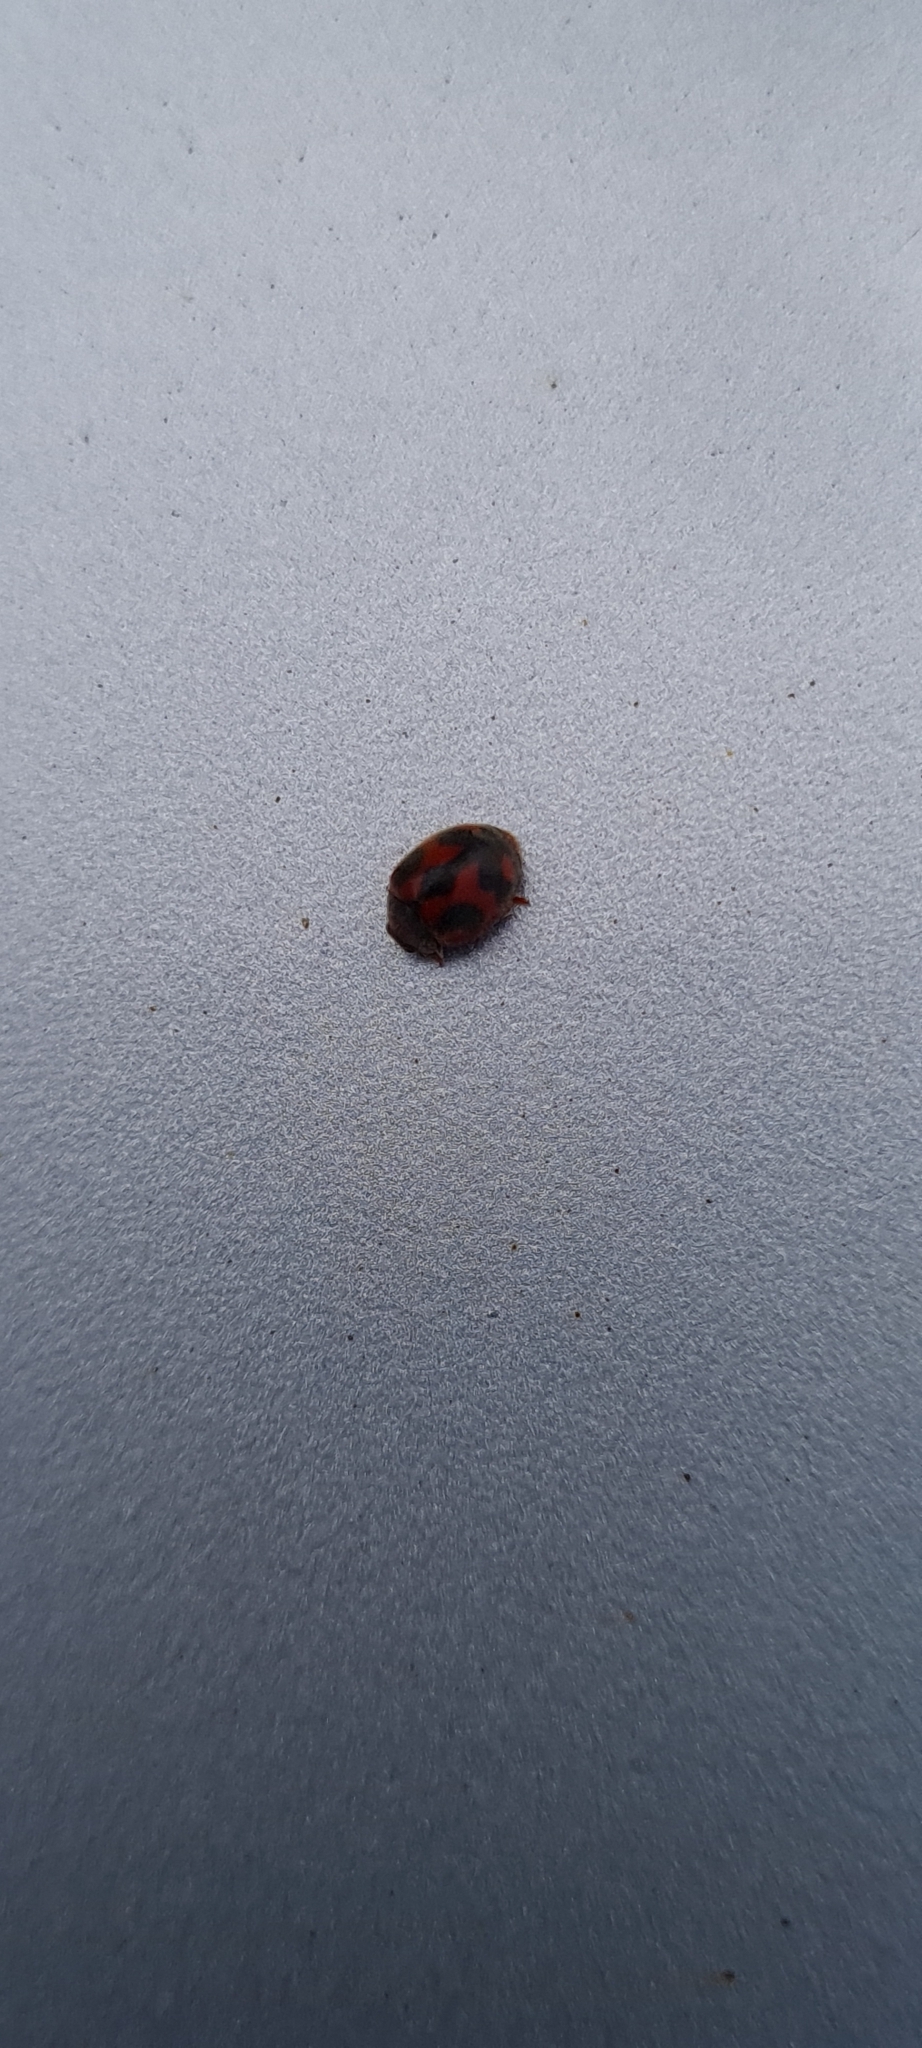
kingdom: Animalia
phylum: Arthropoda
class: Insecta
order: Coleoptera
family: Coccinellidae
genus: Novius
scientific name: Novius cardinalis
